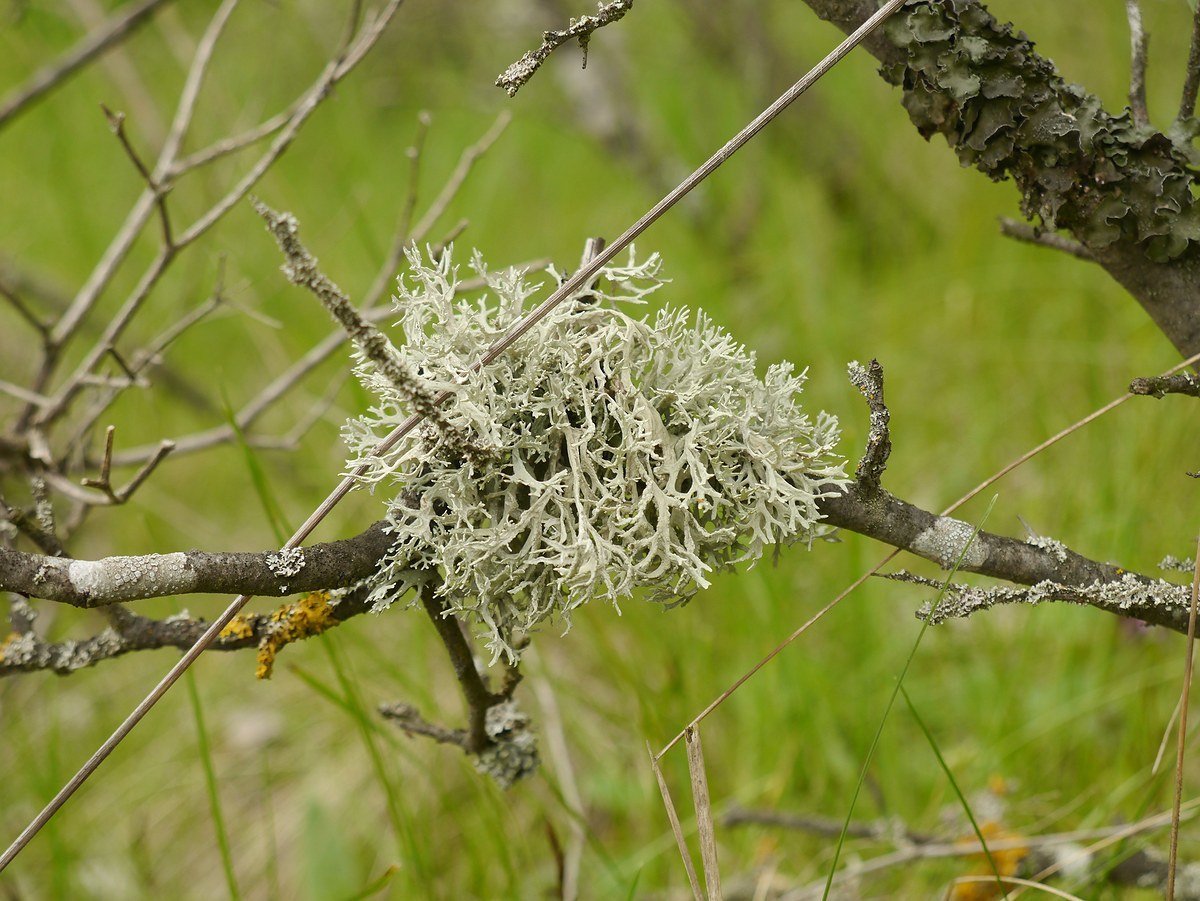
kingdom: Fungi
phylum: Ascomycota
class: Lecanoromycetes
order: Lecanorales
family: Parmeliaceae
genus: Evernia
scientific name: Evernia prunastri
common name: Oak moss
